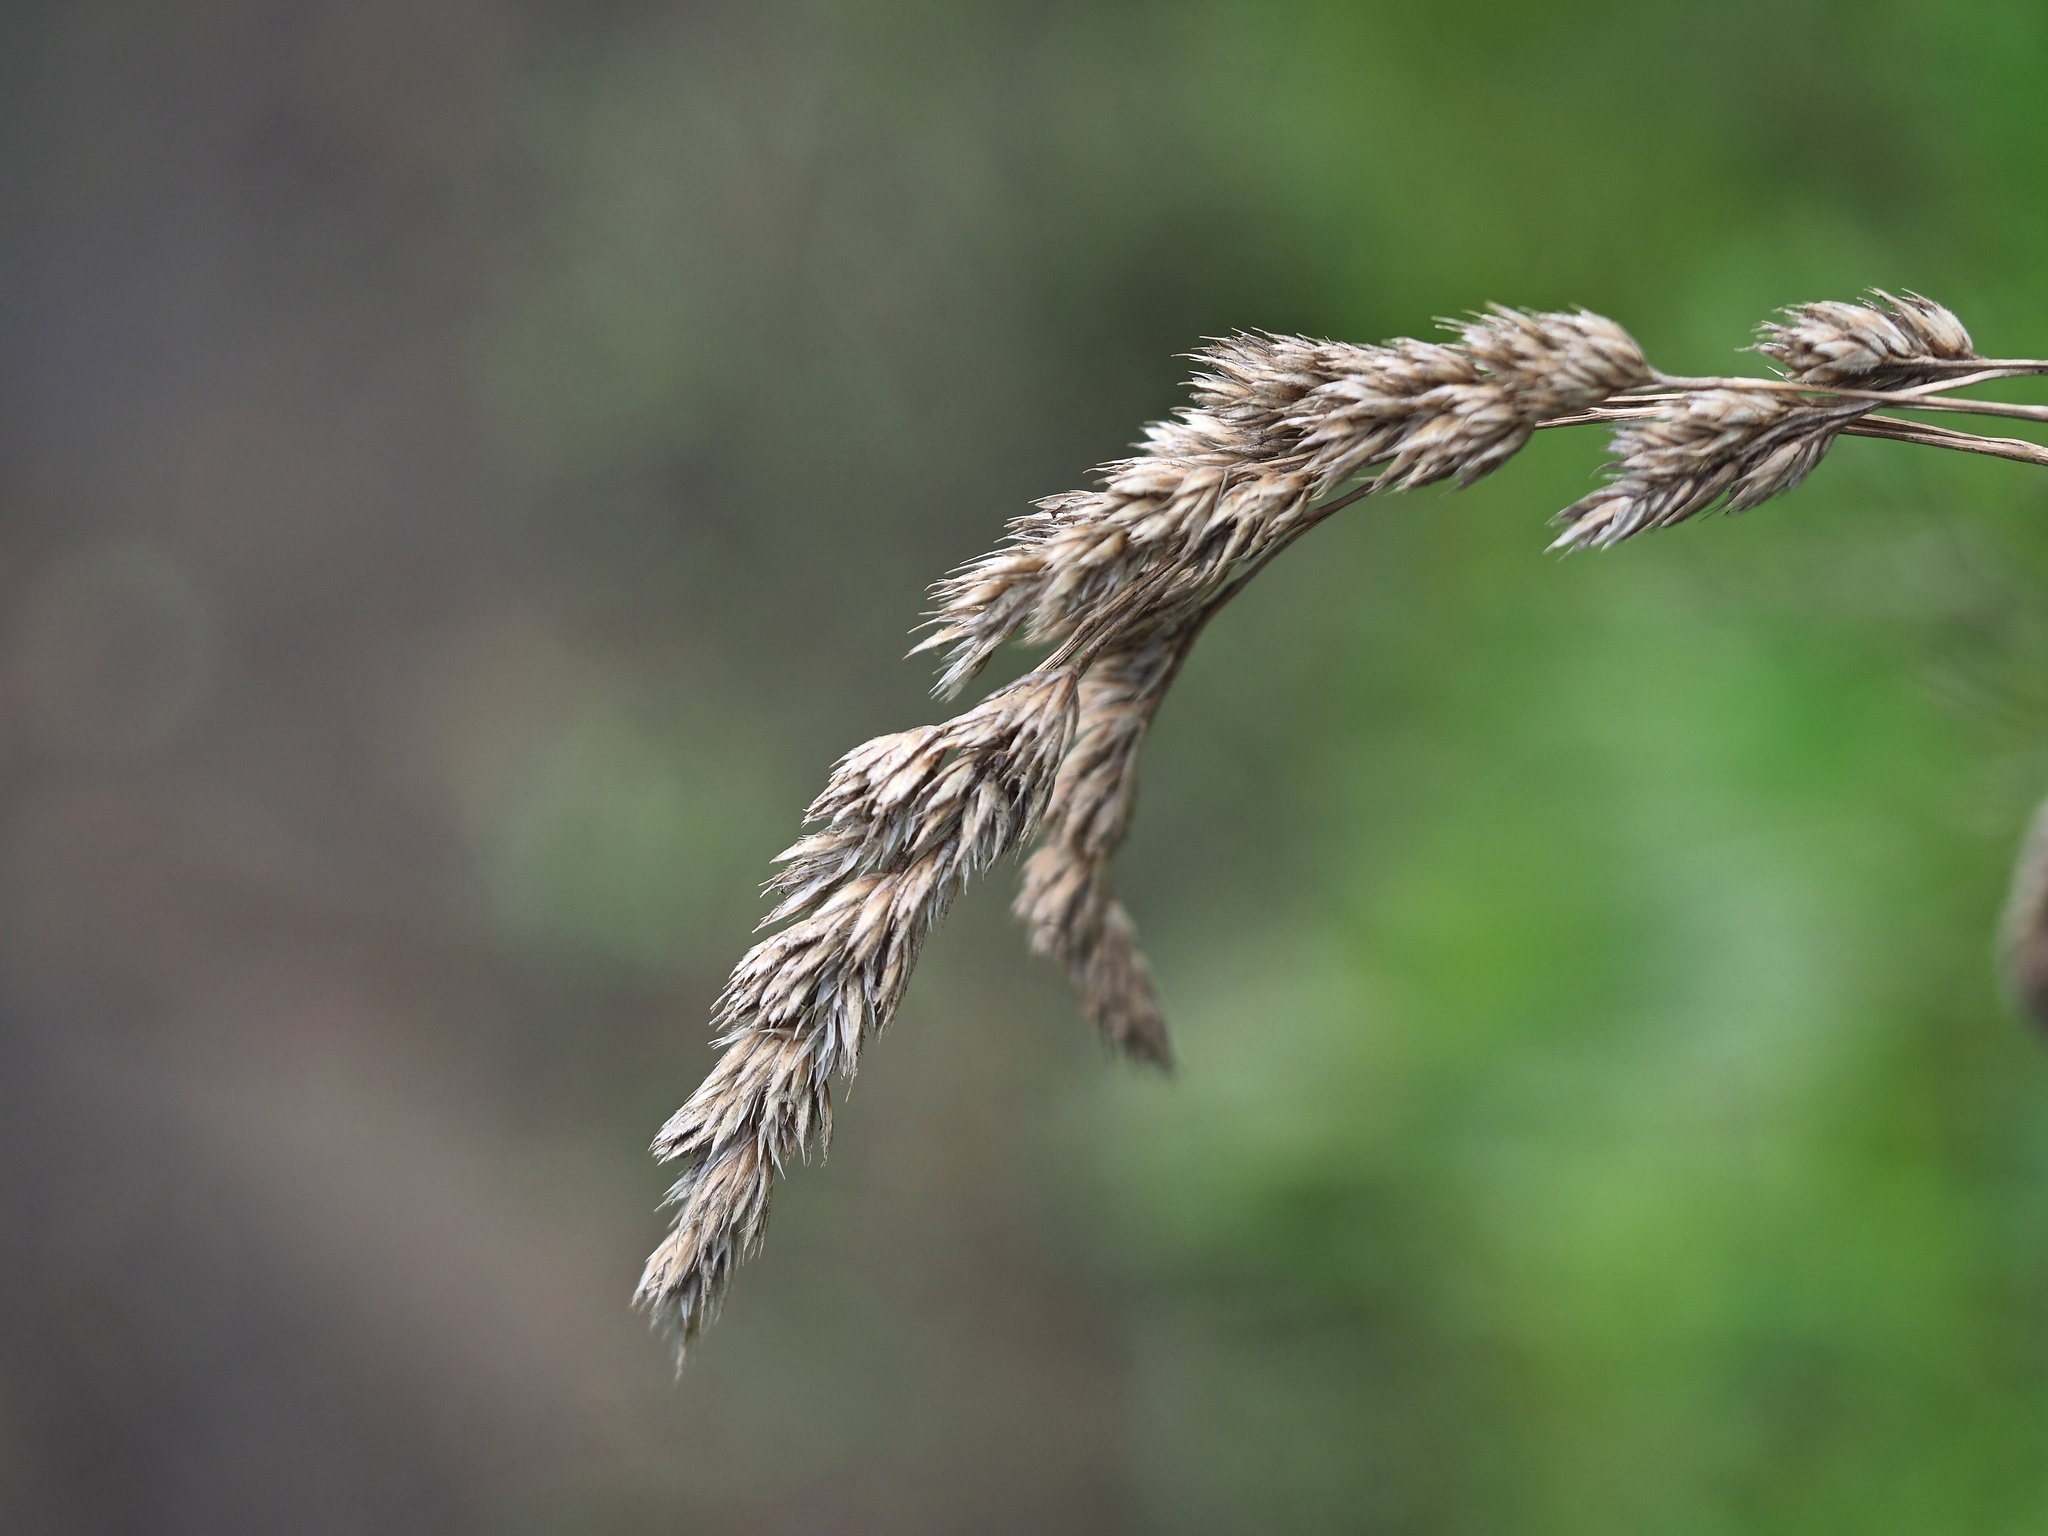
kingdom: Plantae
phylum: Tracheophyta
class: Liliopsida
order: Poales
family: Poaceae
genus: Dactylis
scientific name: Dactylis glomerata
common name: Orchardgrass
